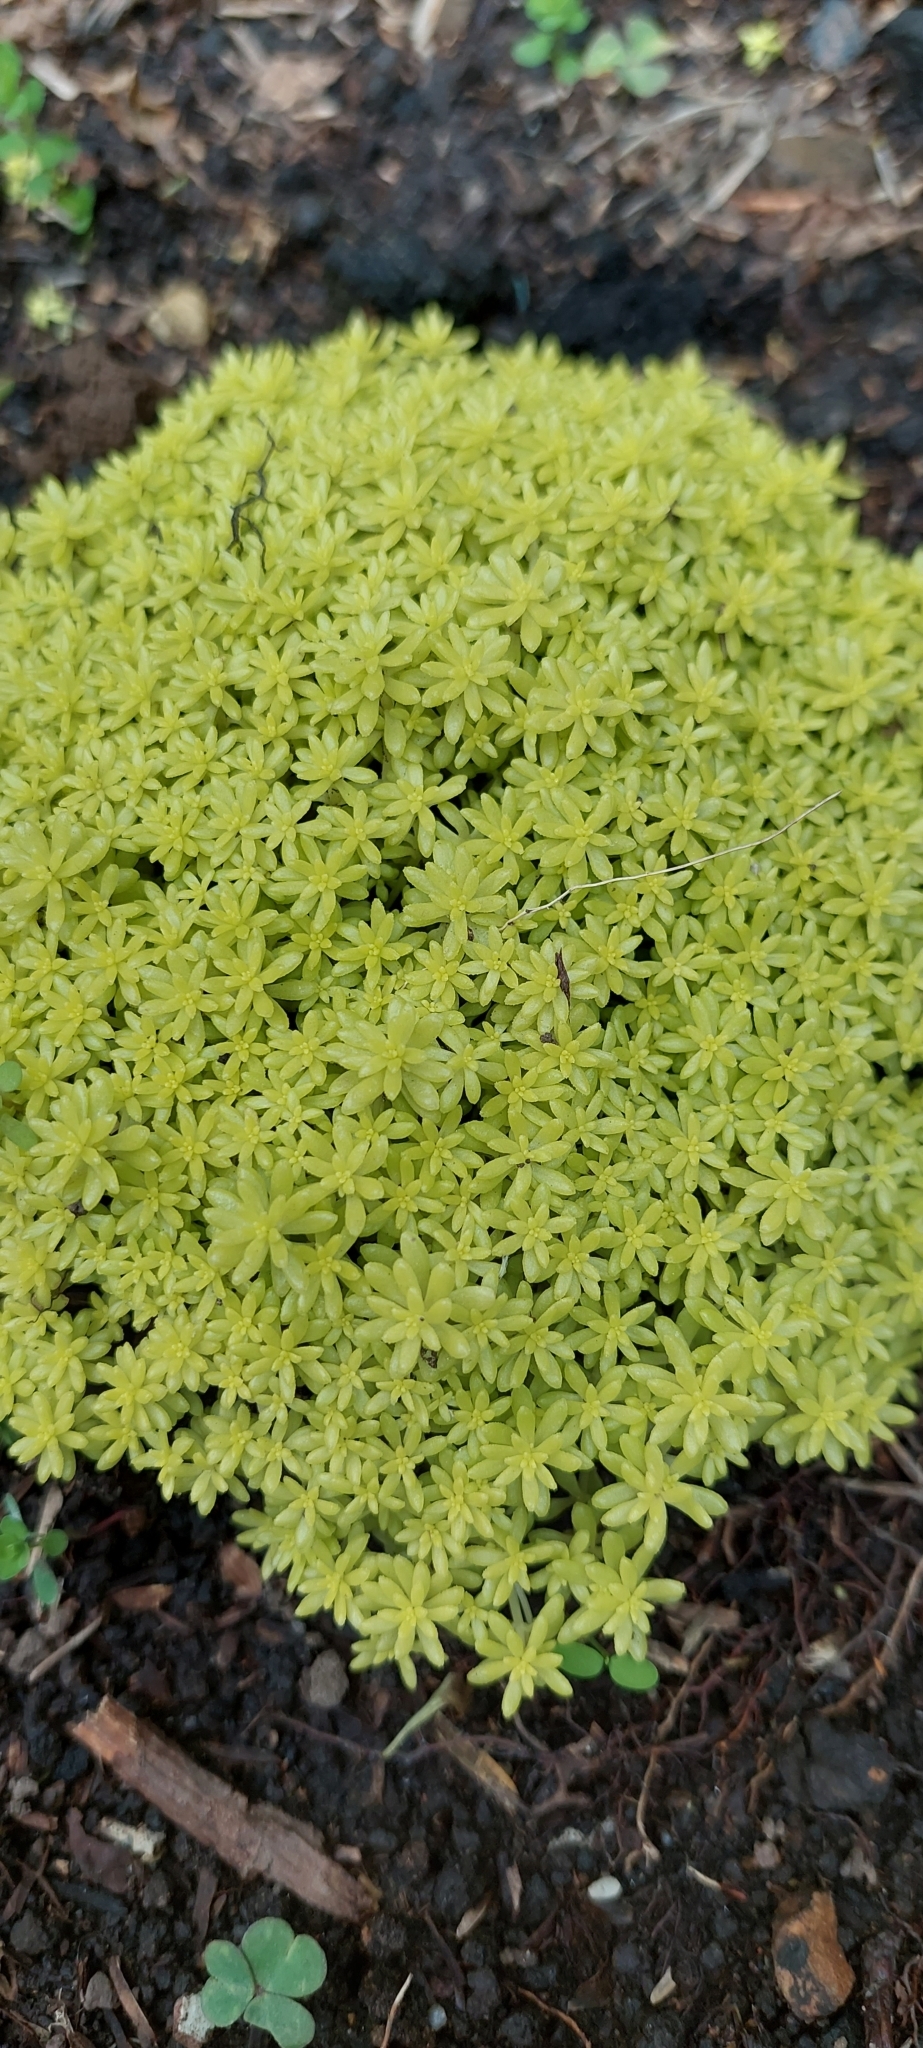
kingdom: Plantae
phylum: Tracheophyta
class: Magnoliopsida
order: Saxifragales
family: Crassulaceae
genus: Sedum
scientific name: Sedum japonicum
